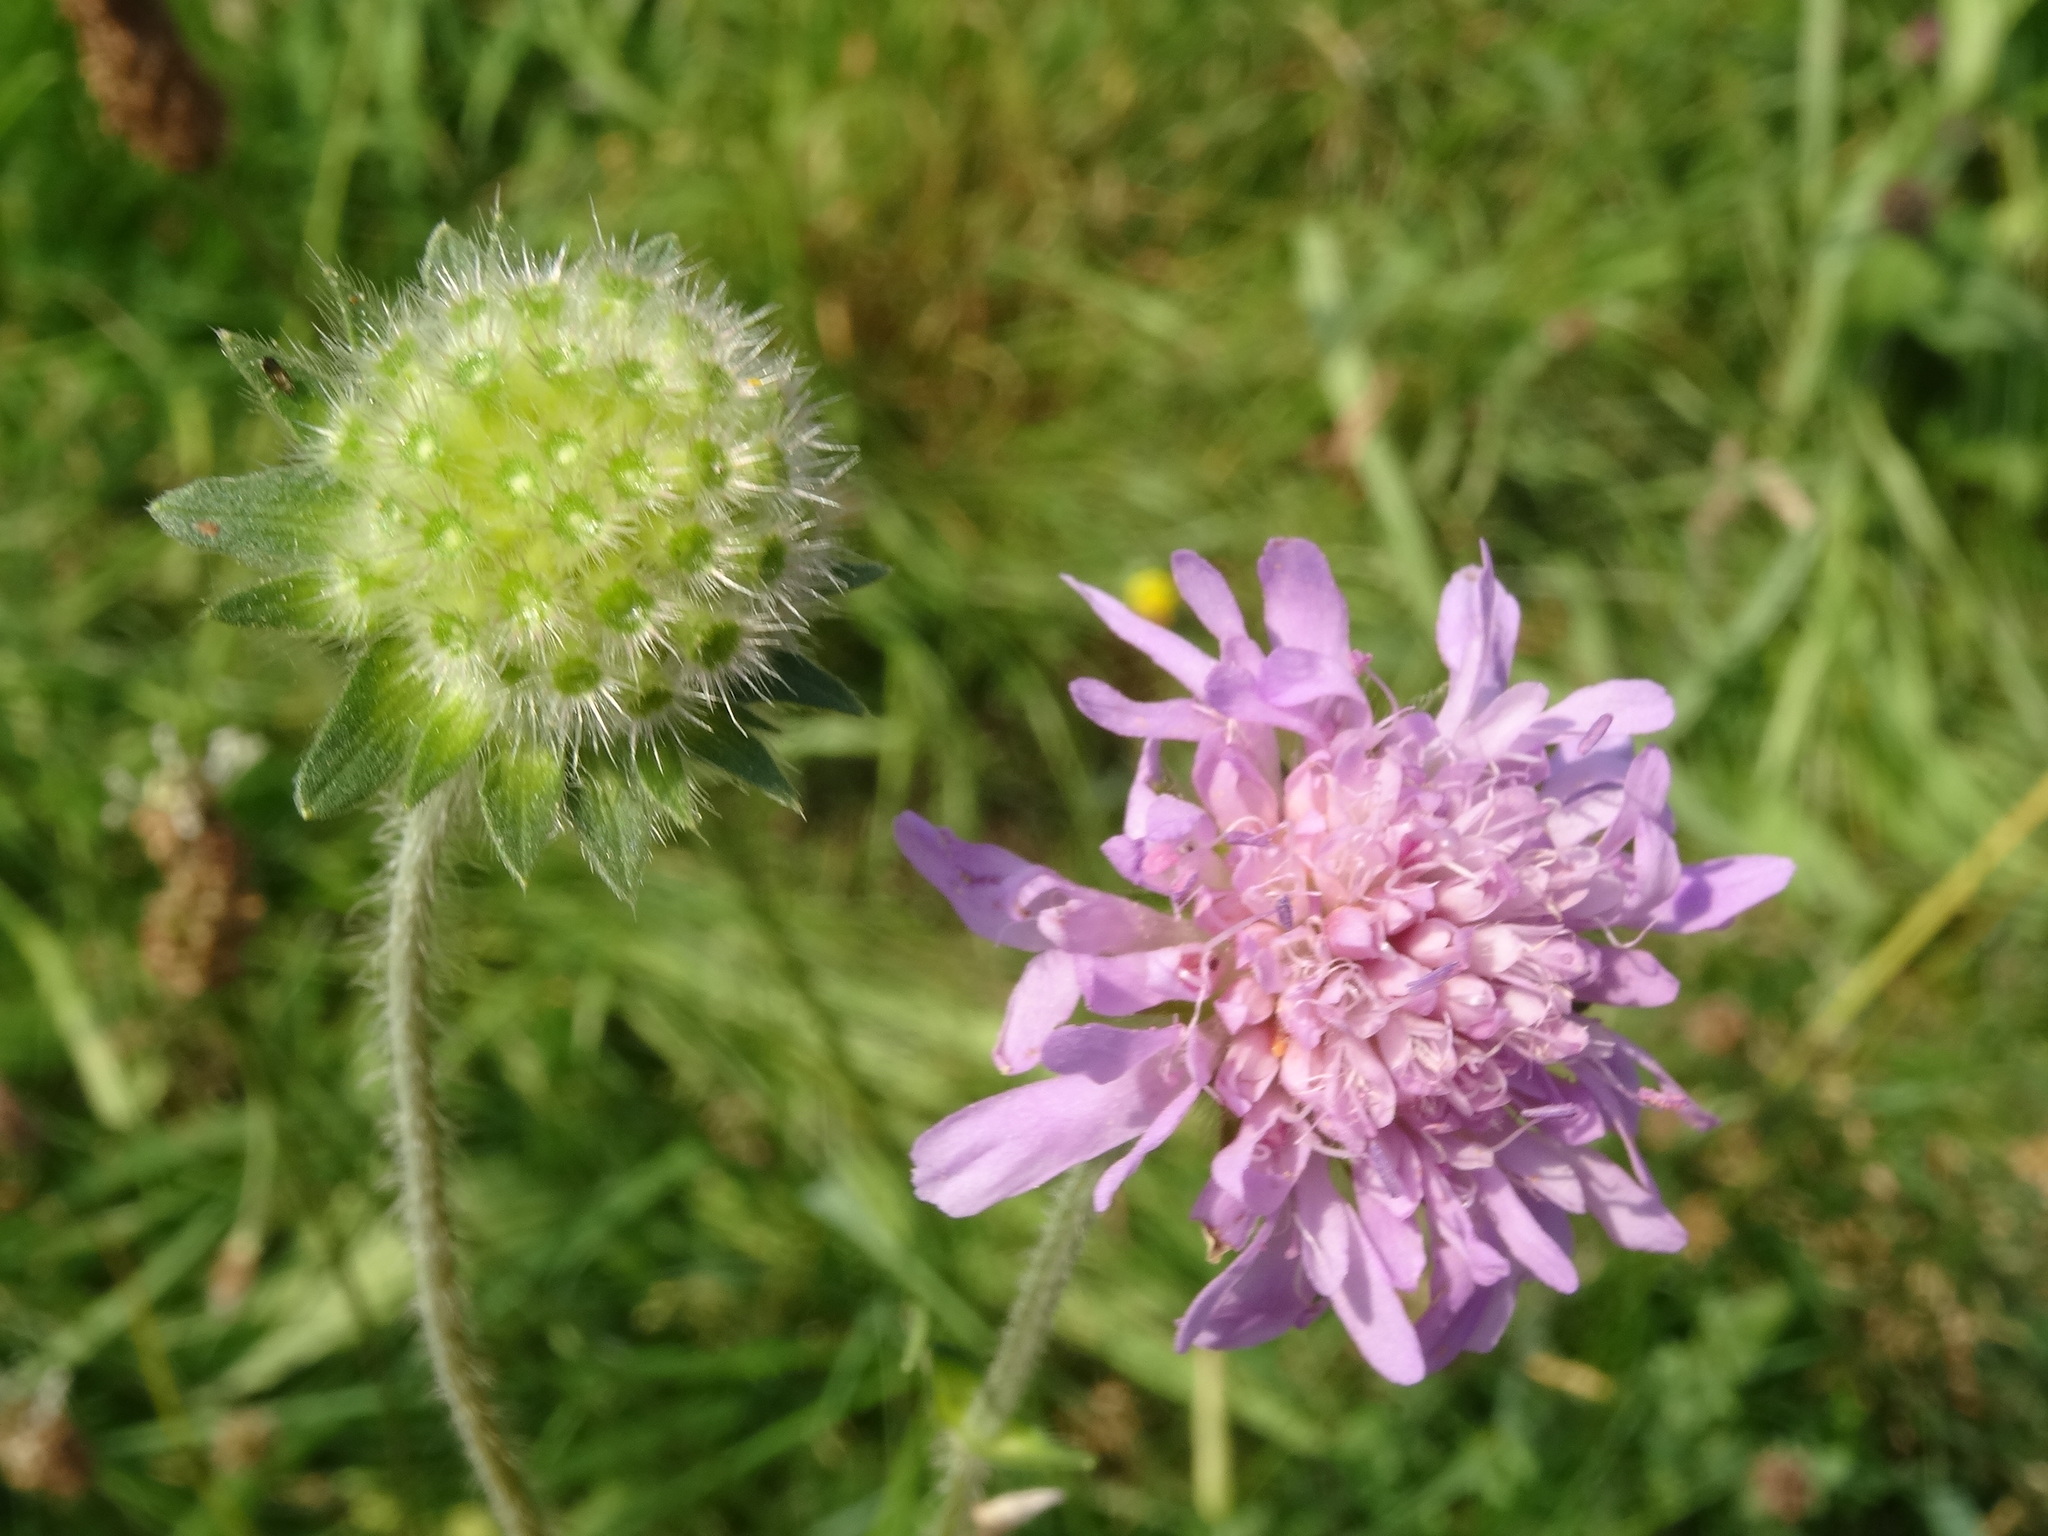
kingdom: Plantae
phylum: Tracheophyta
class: Magnoliopsida
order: Dipsacales
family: Caprifoliaceae
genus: Knautia
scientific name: Knautia arvensis
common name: Field scabiosa
